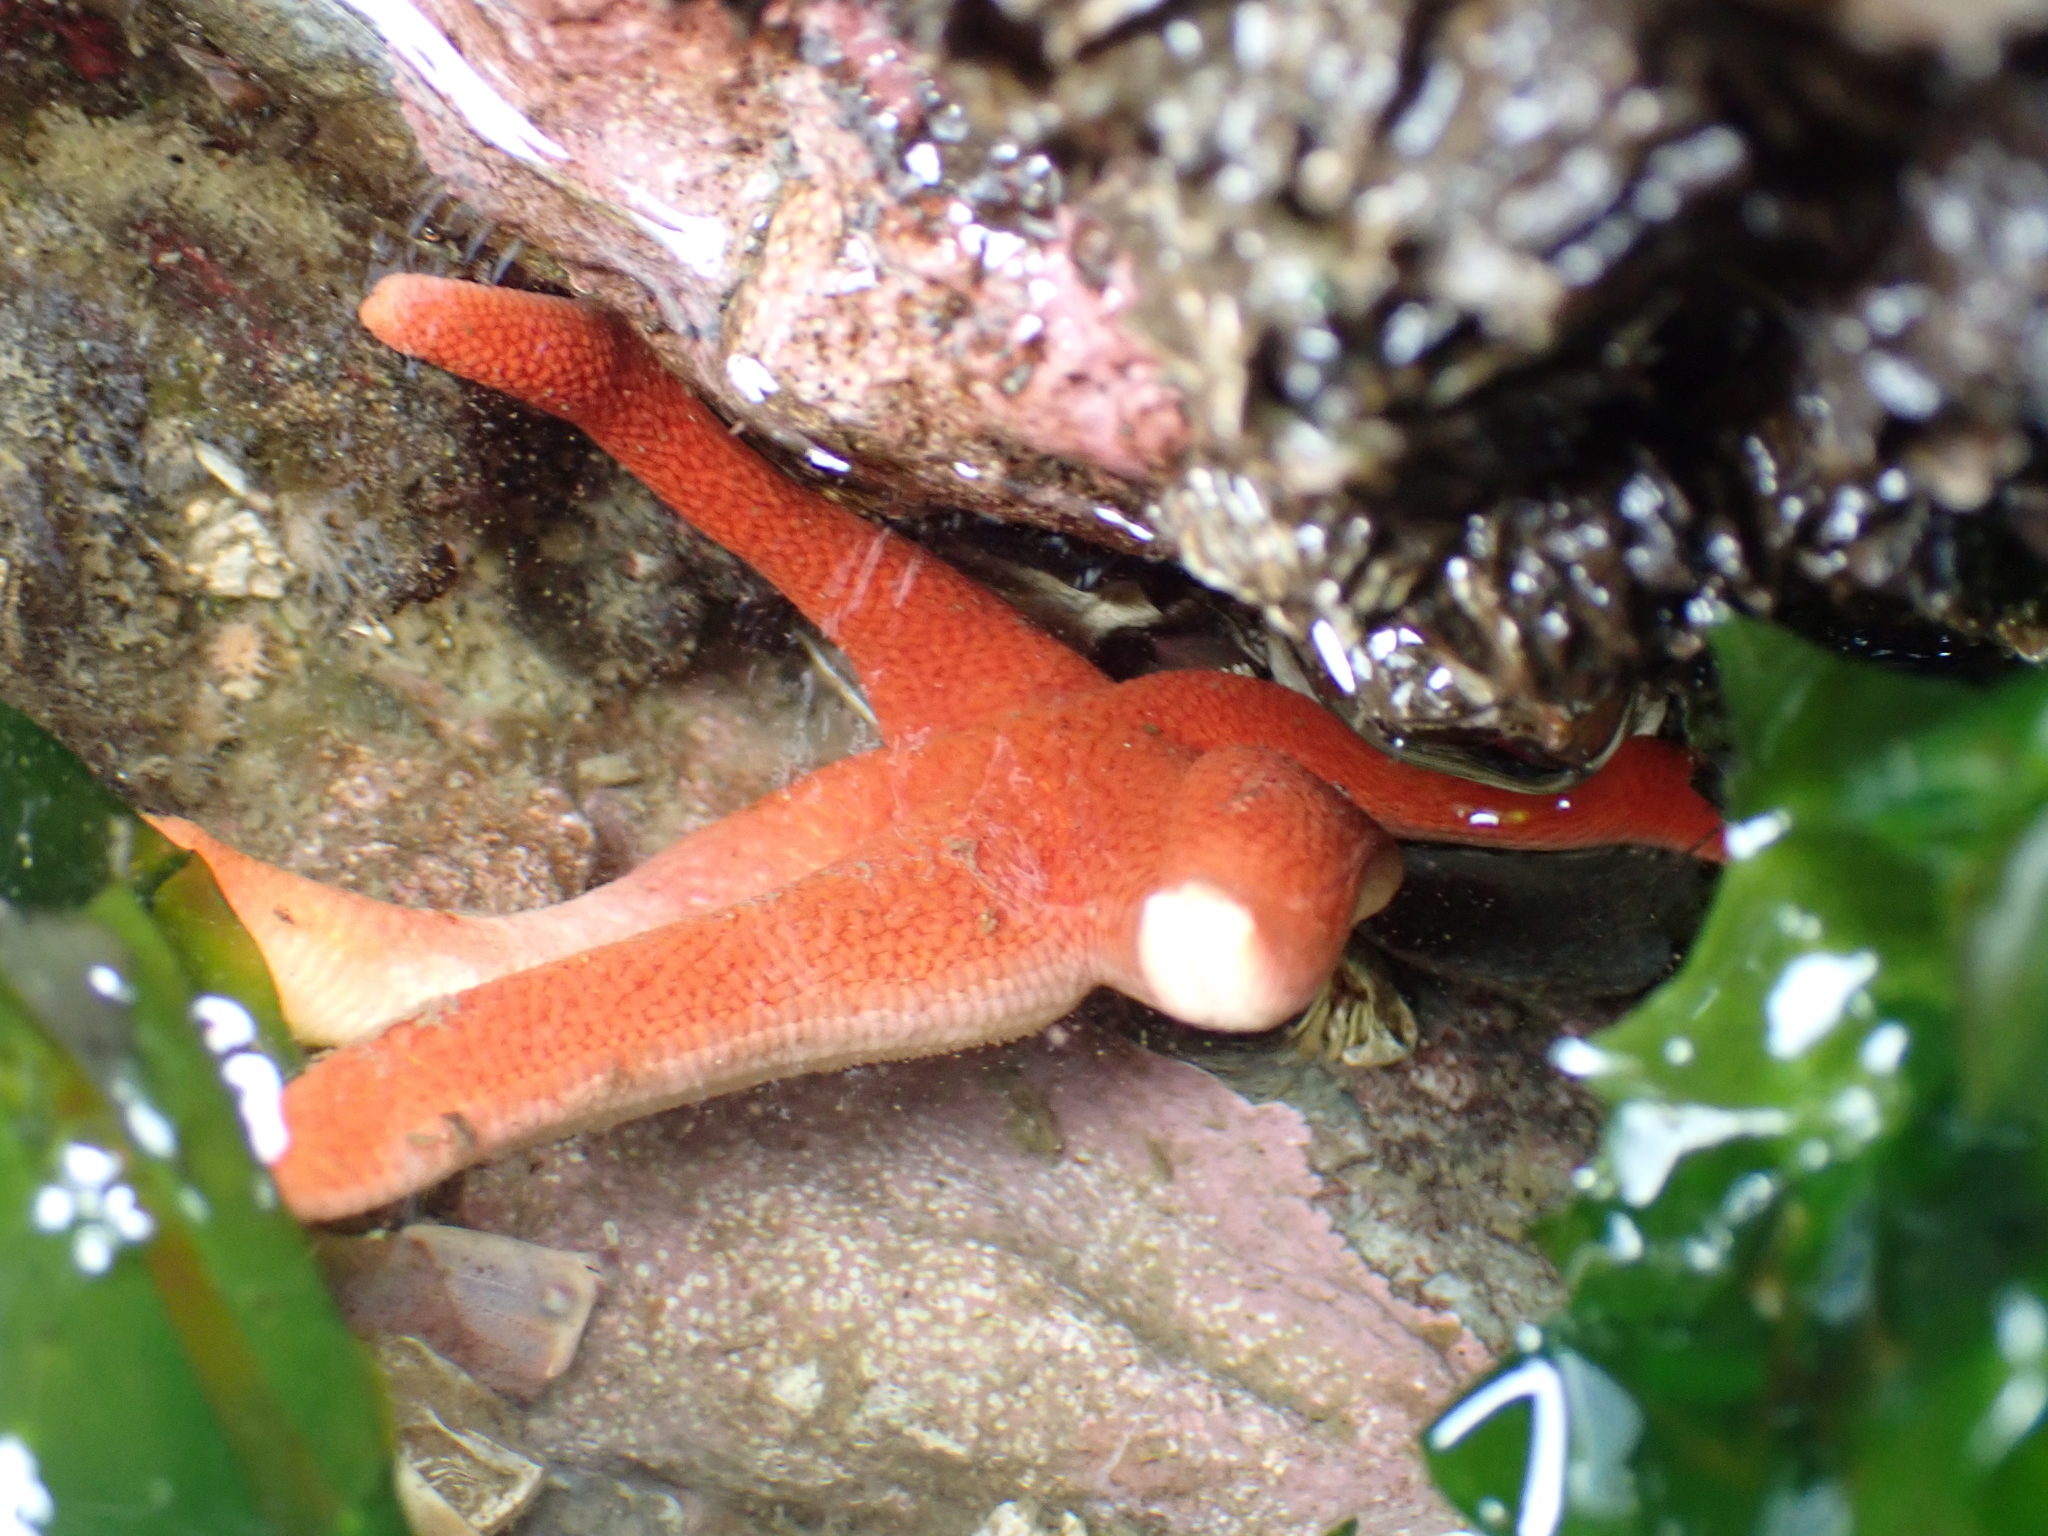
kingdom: Animalia
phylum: Echinodermata
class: Asteroidea
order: Spinulosida
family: Echinasteridae
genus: Henricia
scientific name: Henricia leviuscula
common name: Pacific blood star
